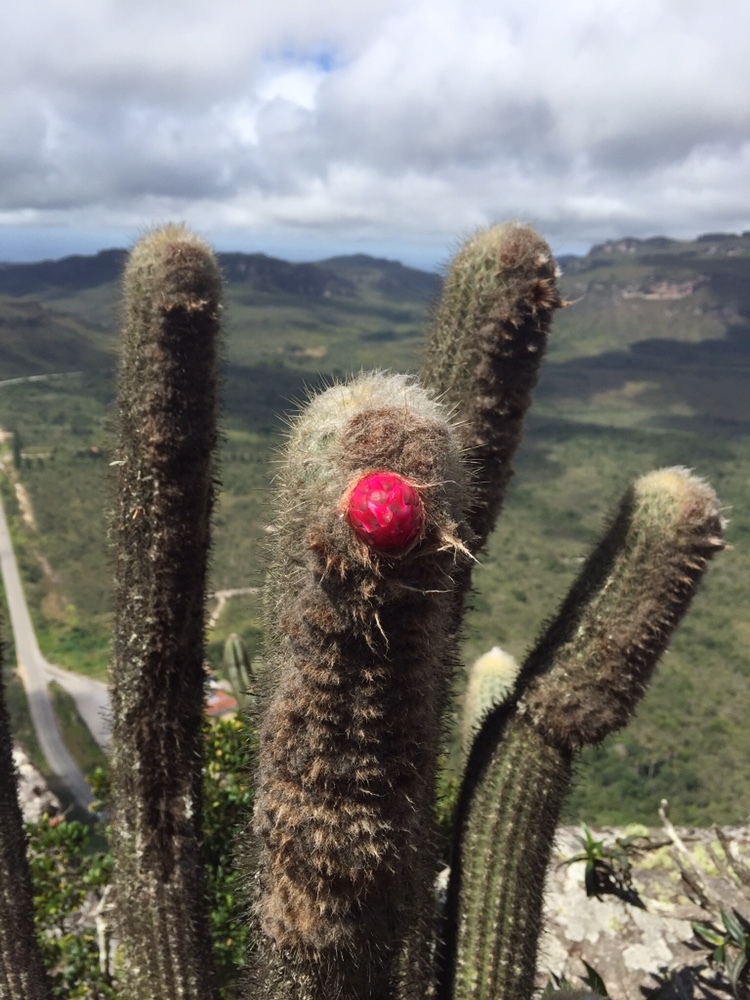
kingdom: Plantae
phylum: Tracheophyta
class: Magnoliopsida
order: Caryophyllales
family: Cactaceae
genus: Micranthocereus
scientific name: Micranthocereus purpureus
